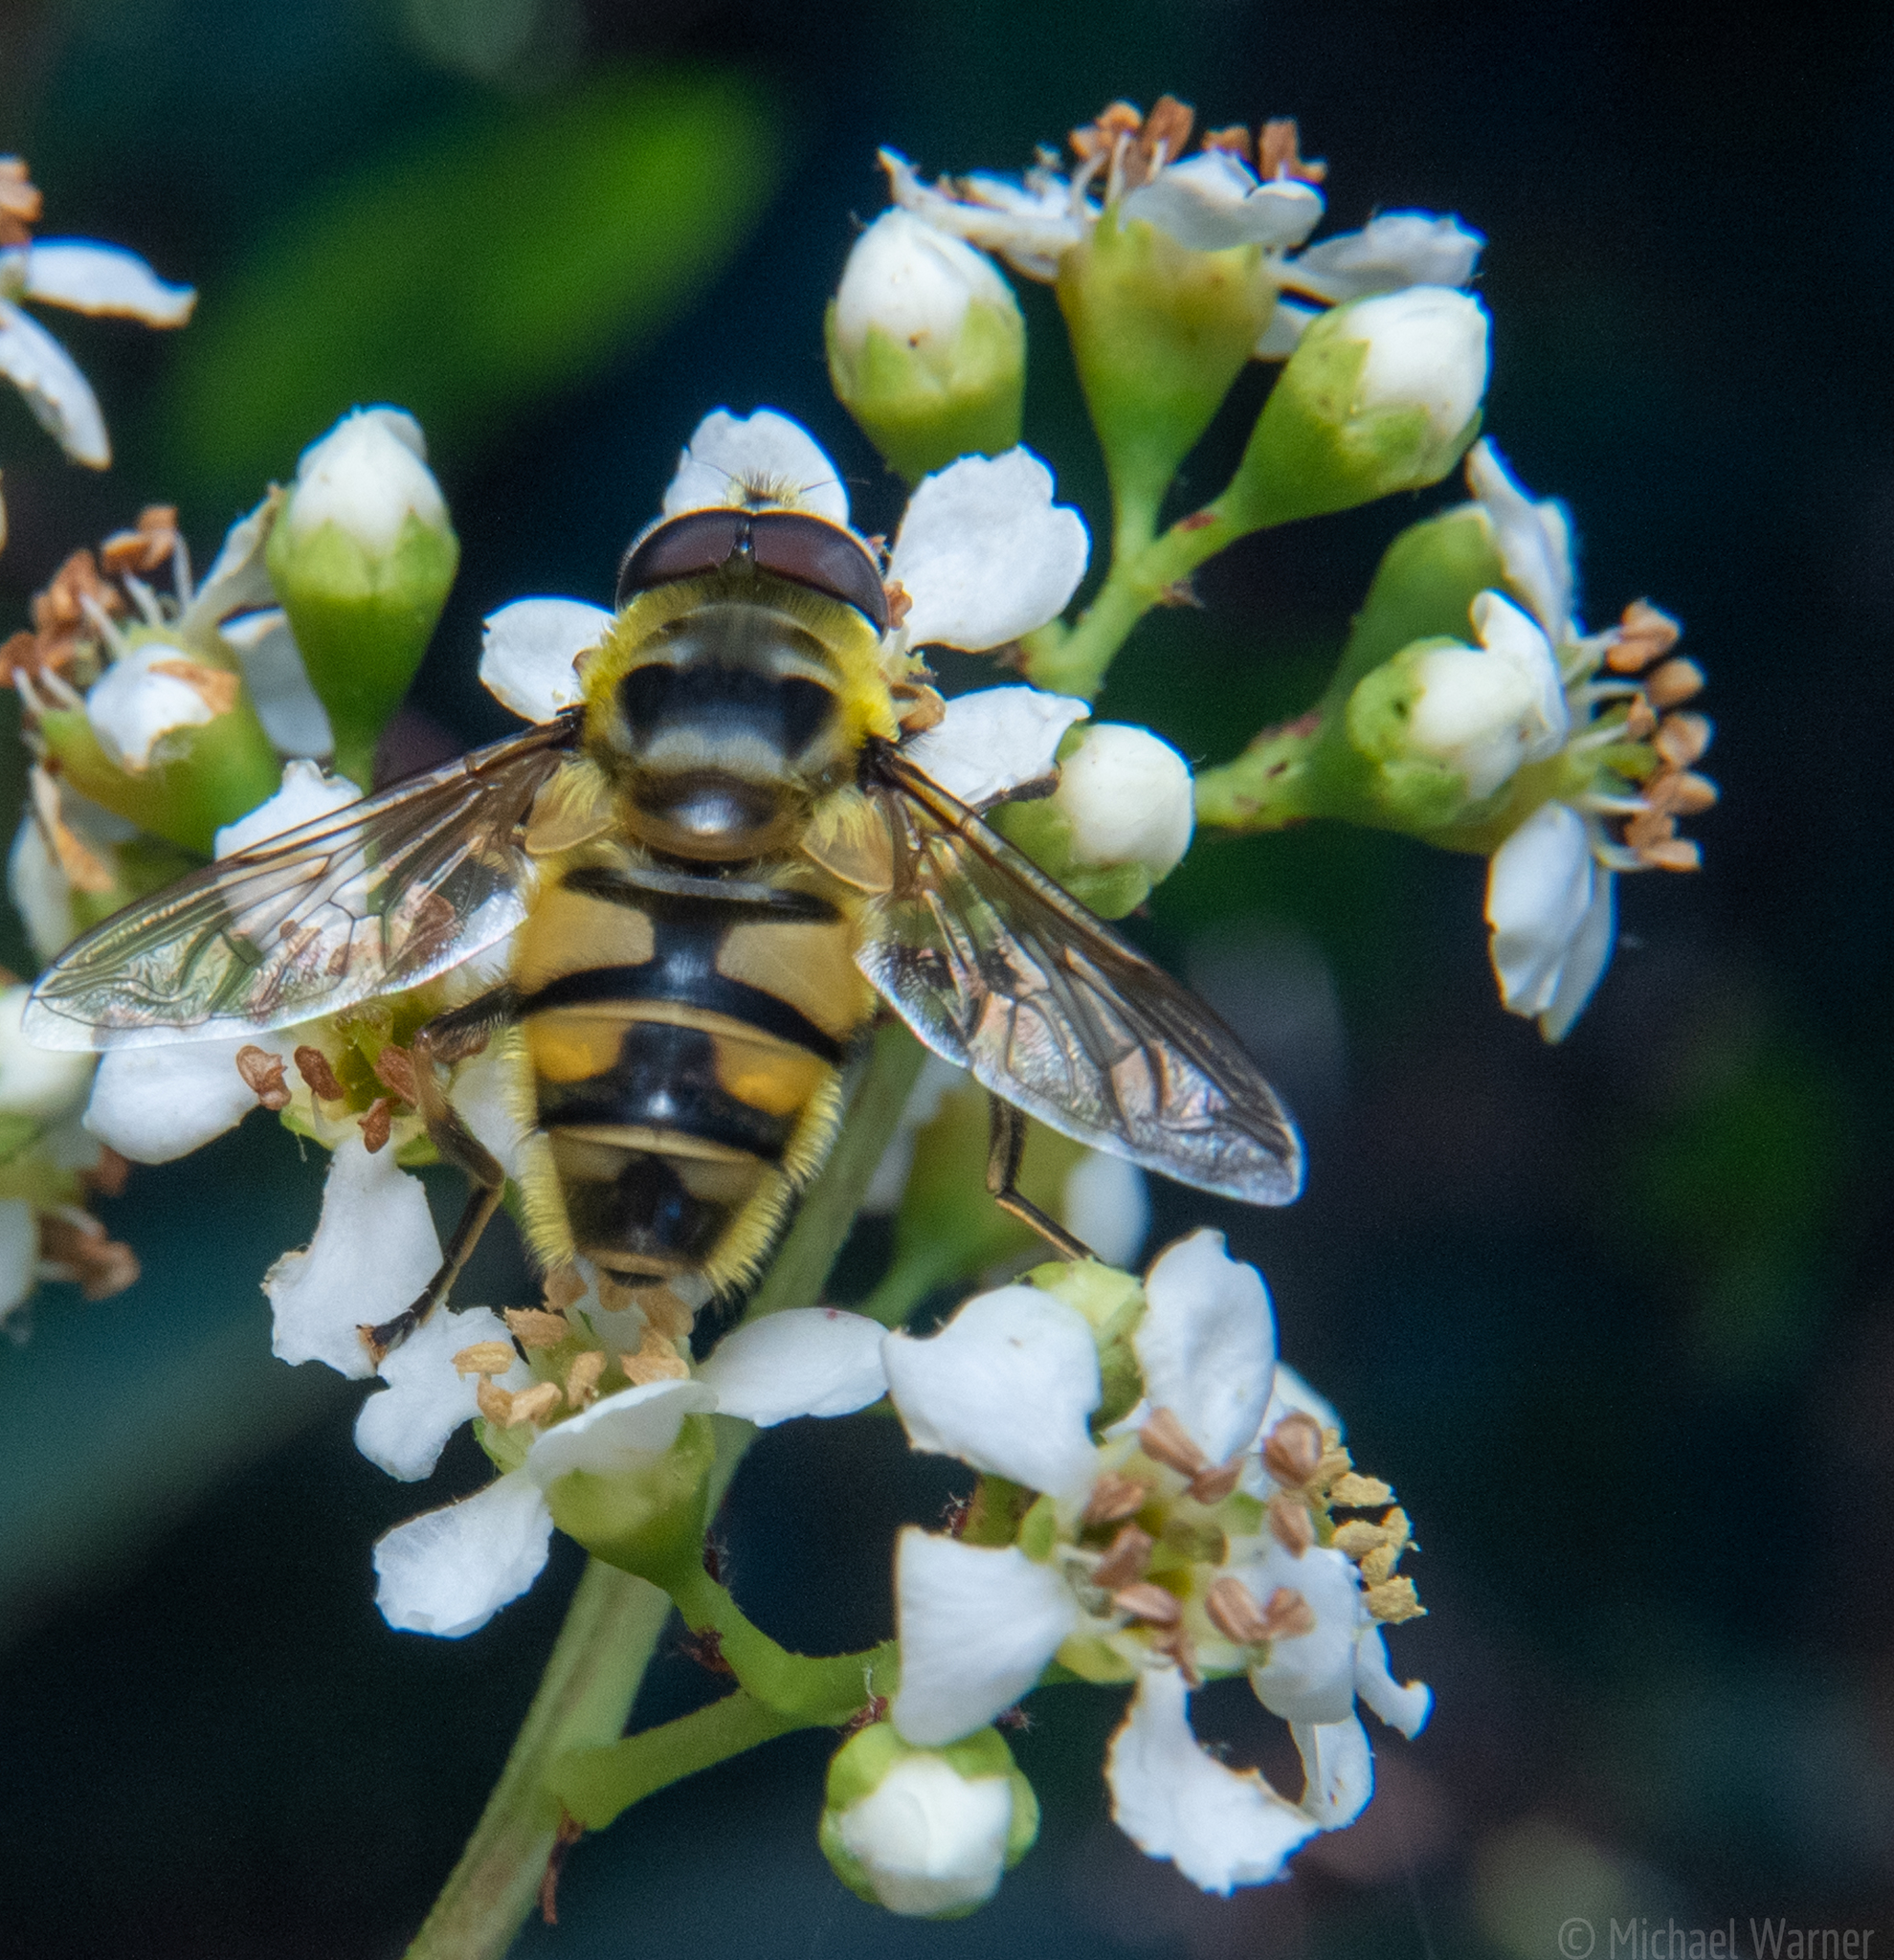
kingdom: Animalia
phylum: Arthropoda
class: Insecta
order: Diptera
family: Syrphidae
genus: Myathropa
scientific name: Myathropa florea
